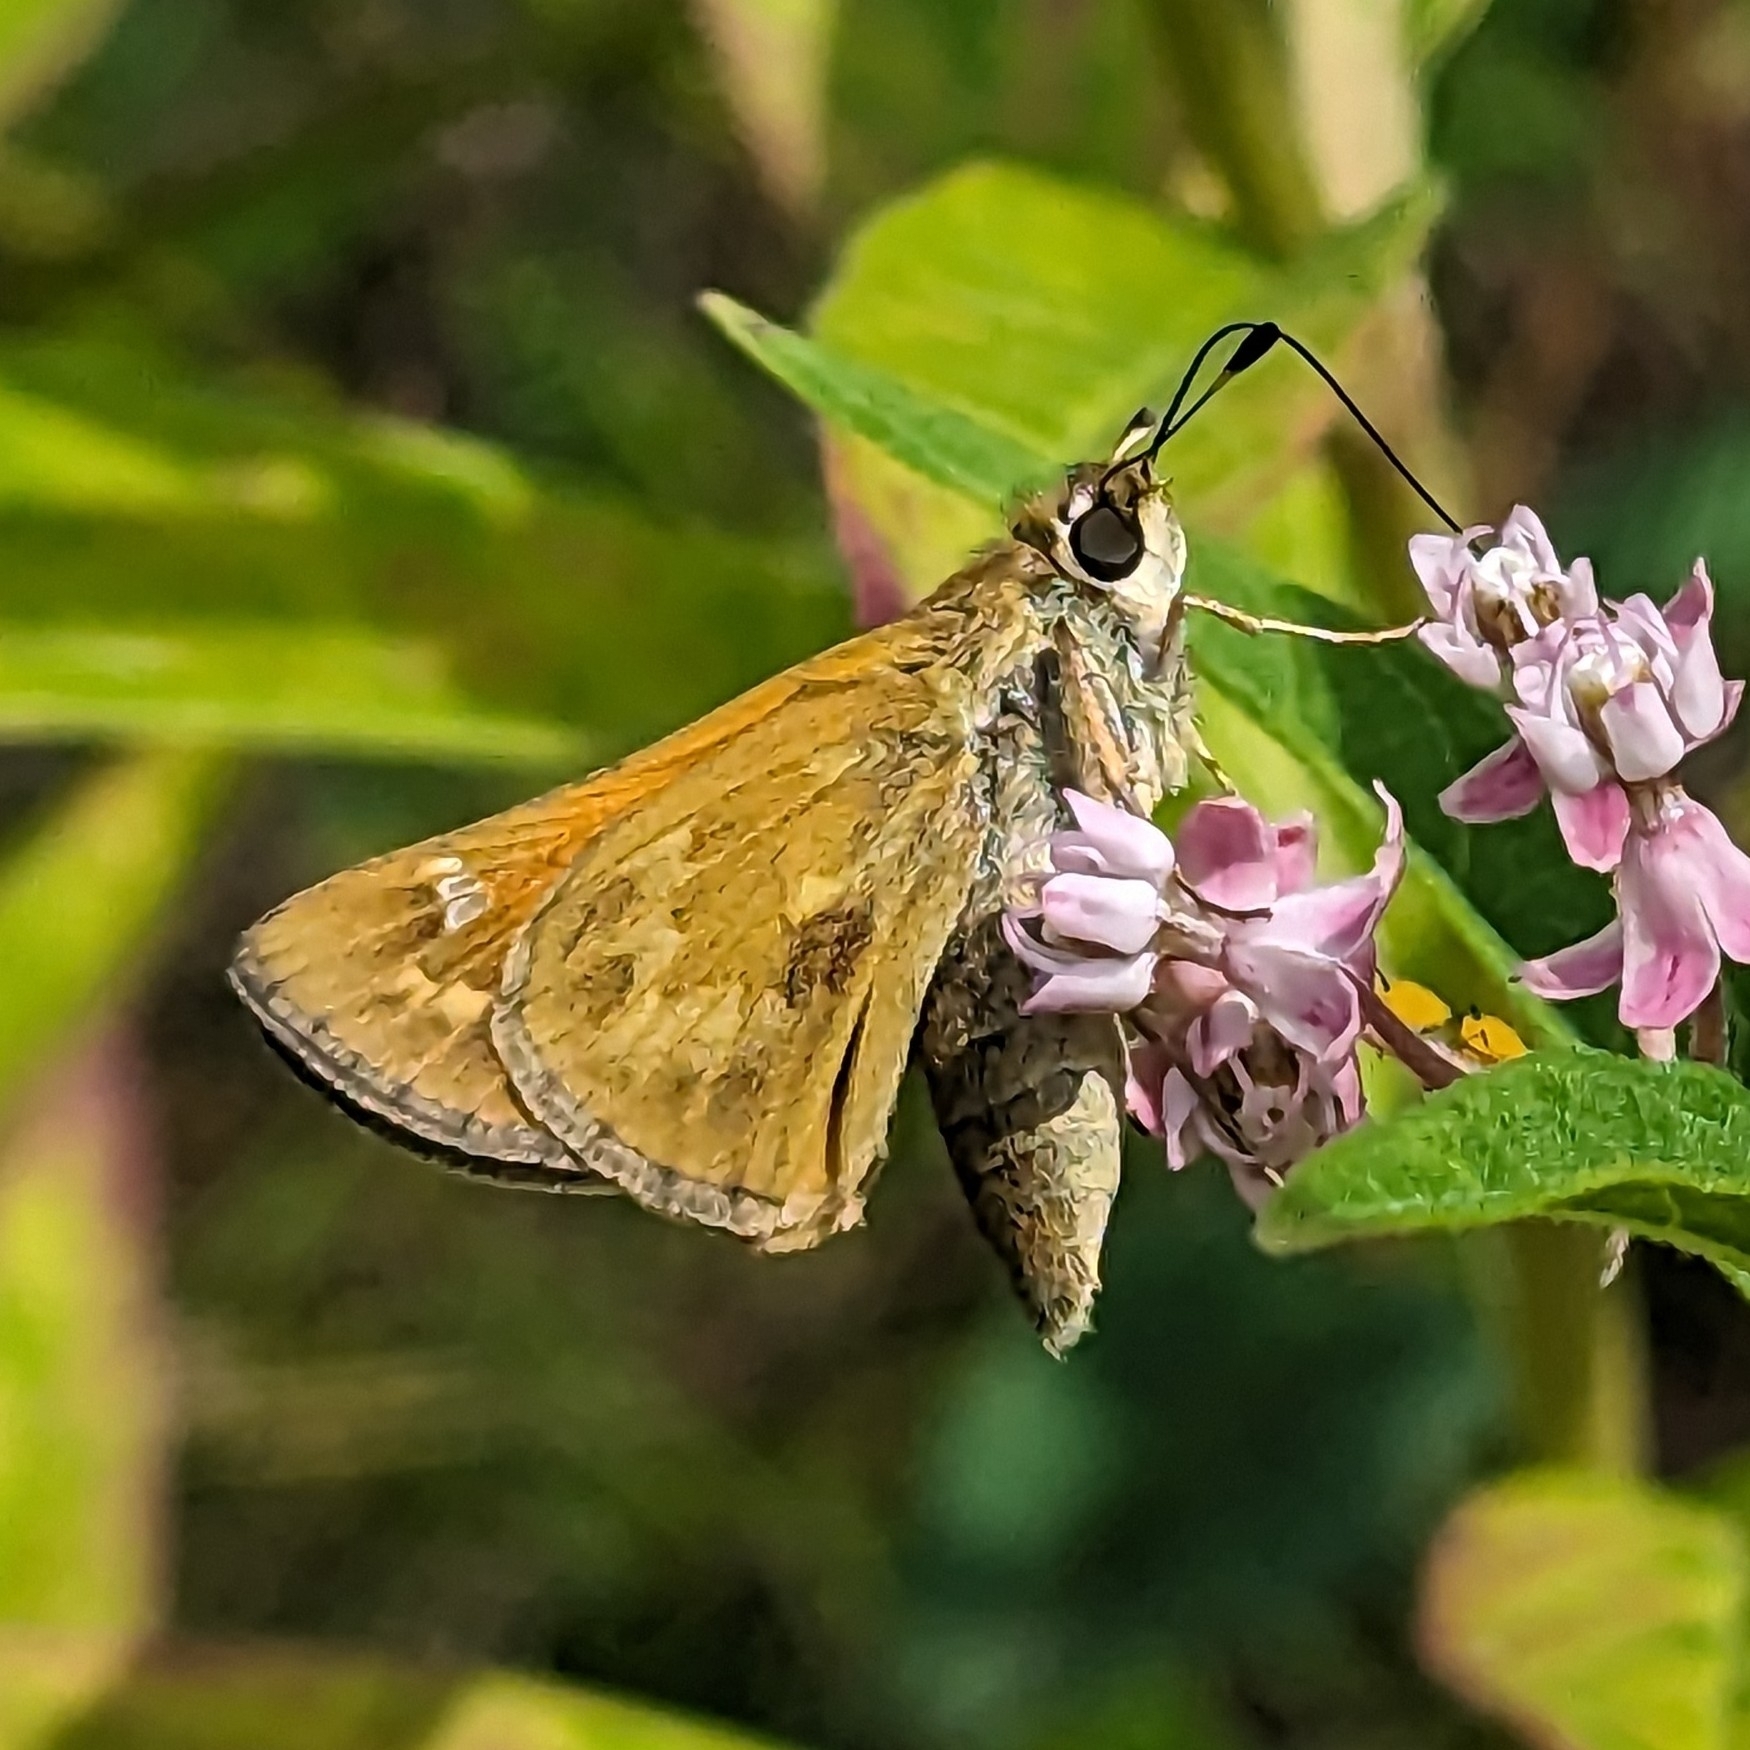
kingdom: Animalia
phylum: Arthropoda
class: Insecta
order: Lepidoptera
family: Hesperiidae
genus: Atalopedes
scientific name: Atalopedes
